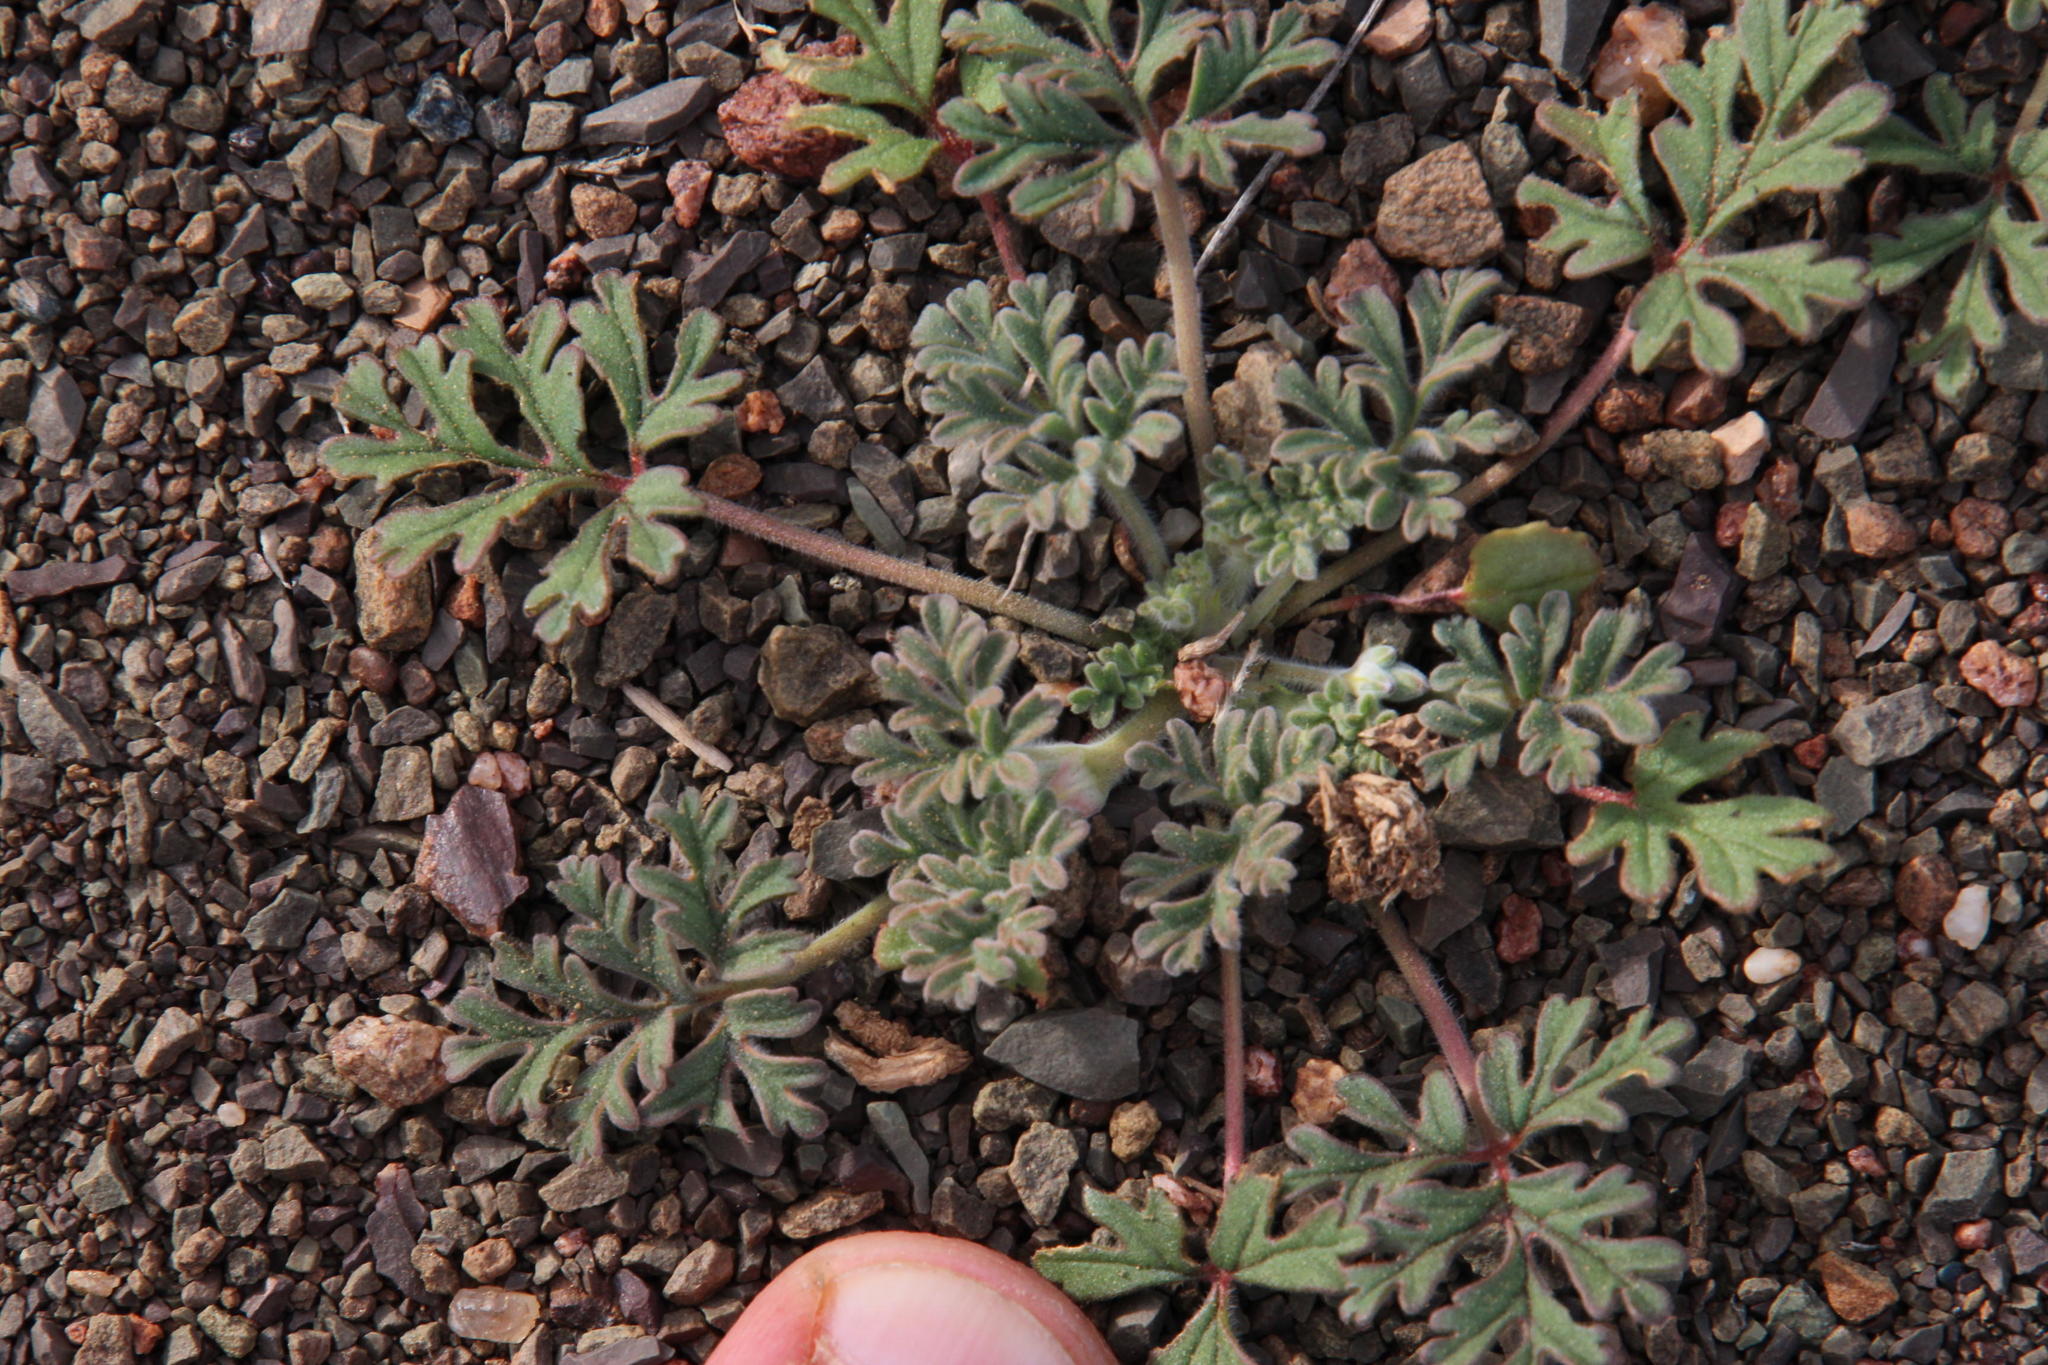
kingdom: Plantae
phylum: Tracheophyta
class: Magnoliopsida
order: Geraniales
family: Geraniaceae
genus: Pelargonium
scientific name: Pelargonium minimum
